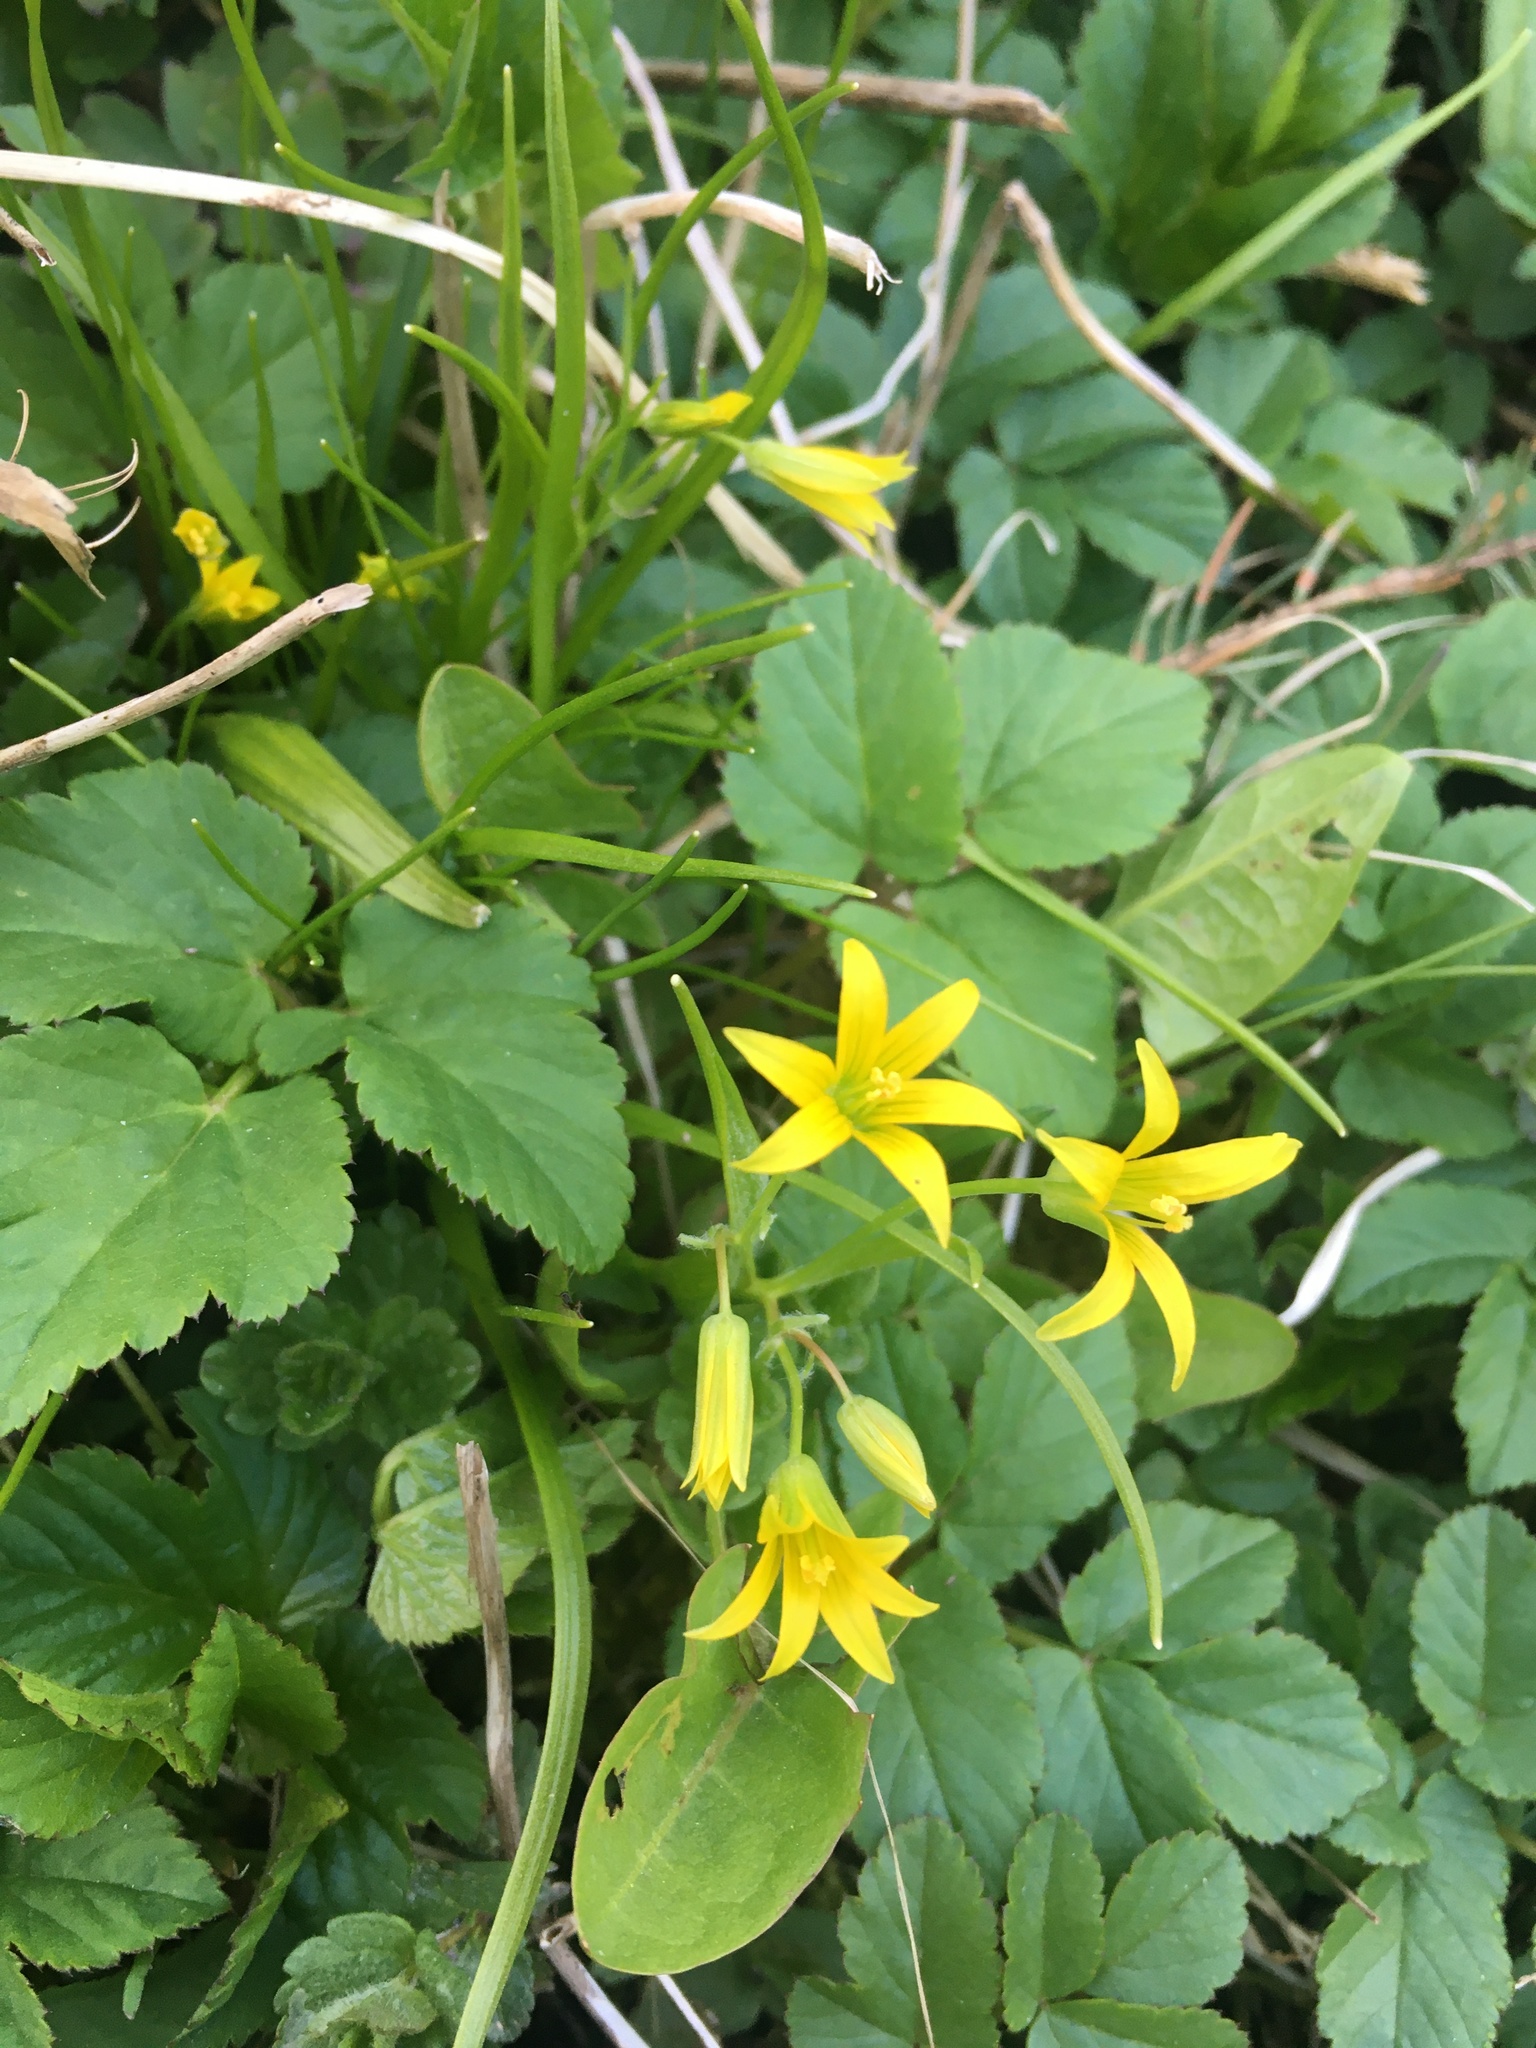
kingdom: Plantae
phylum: Tracheophyta
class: Liliopsida
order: Liliales
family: Liliaceae
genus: Gagea
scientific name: Gagea minima
